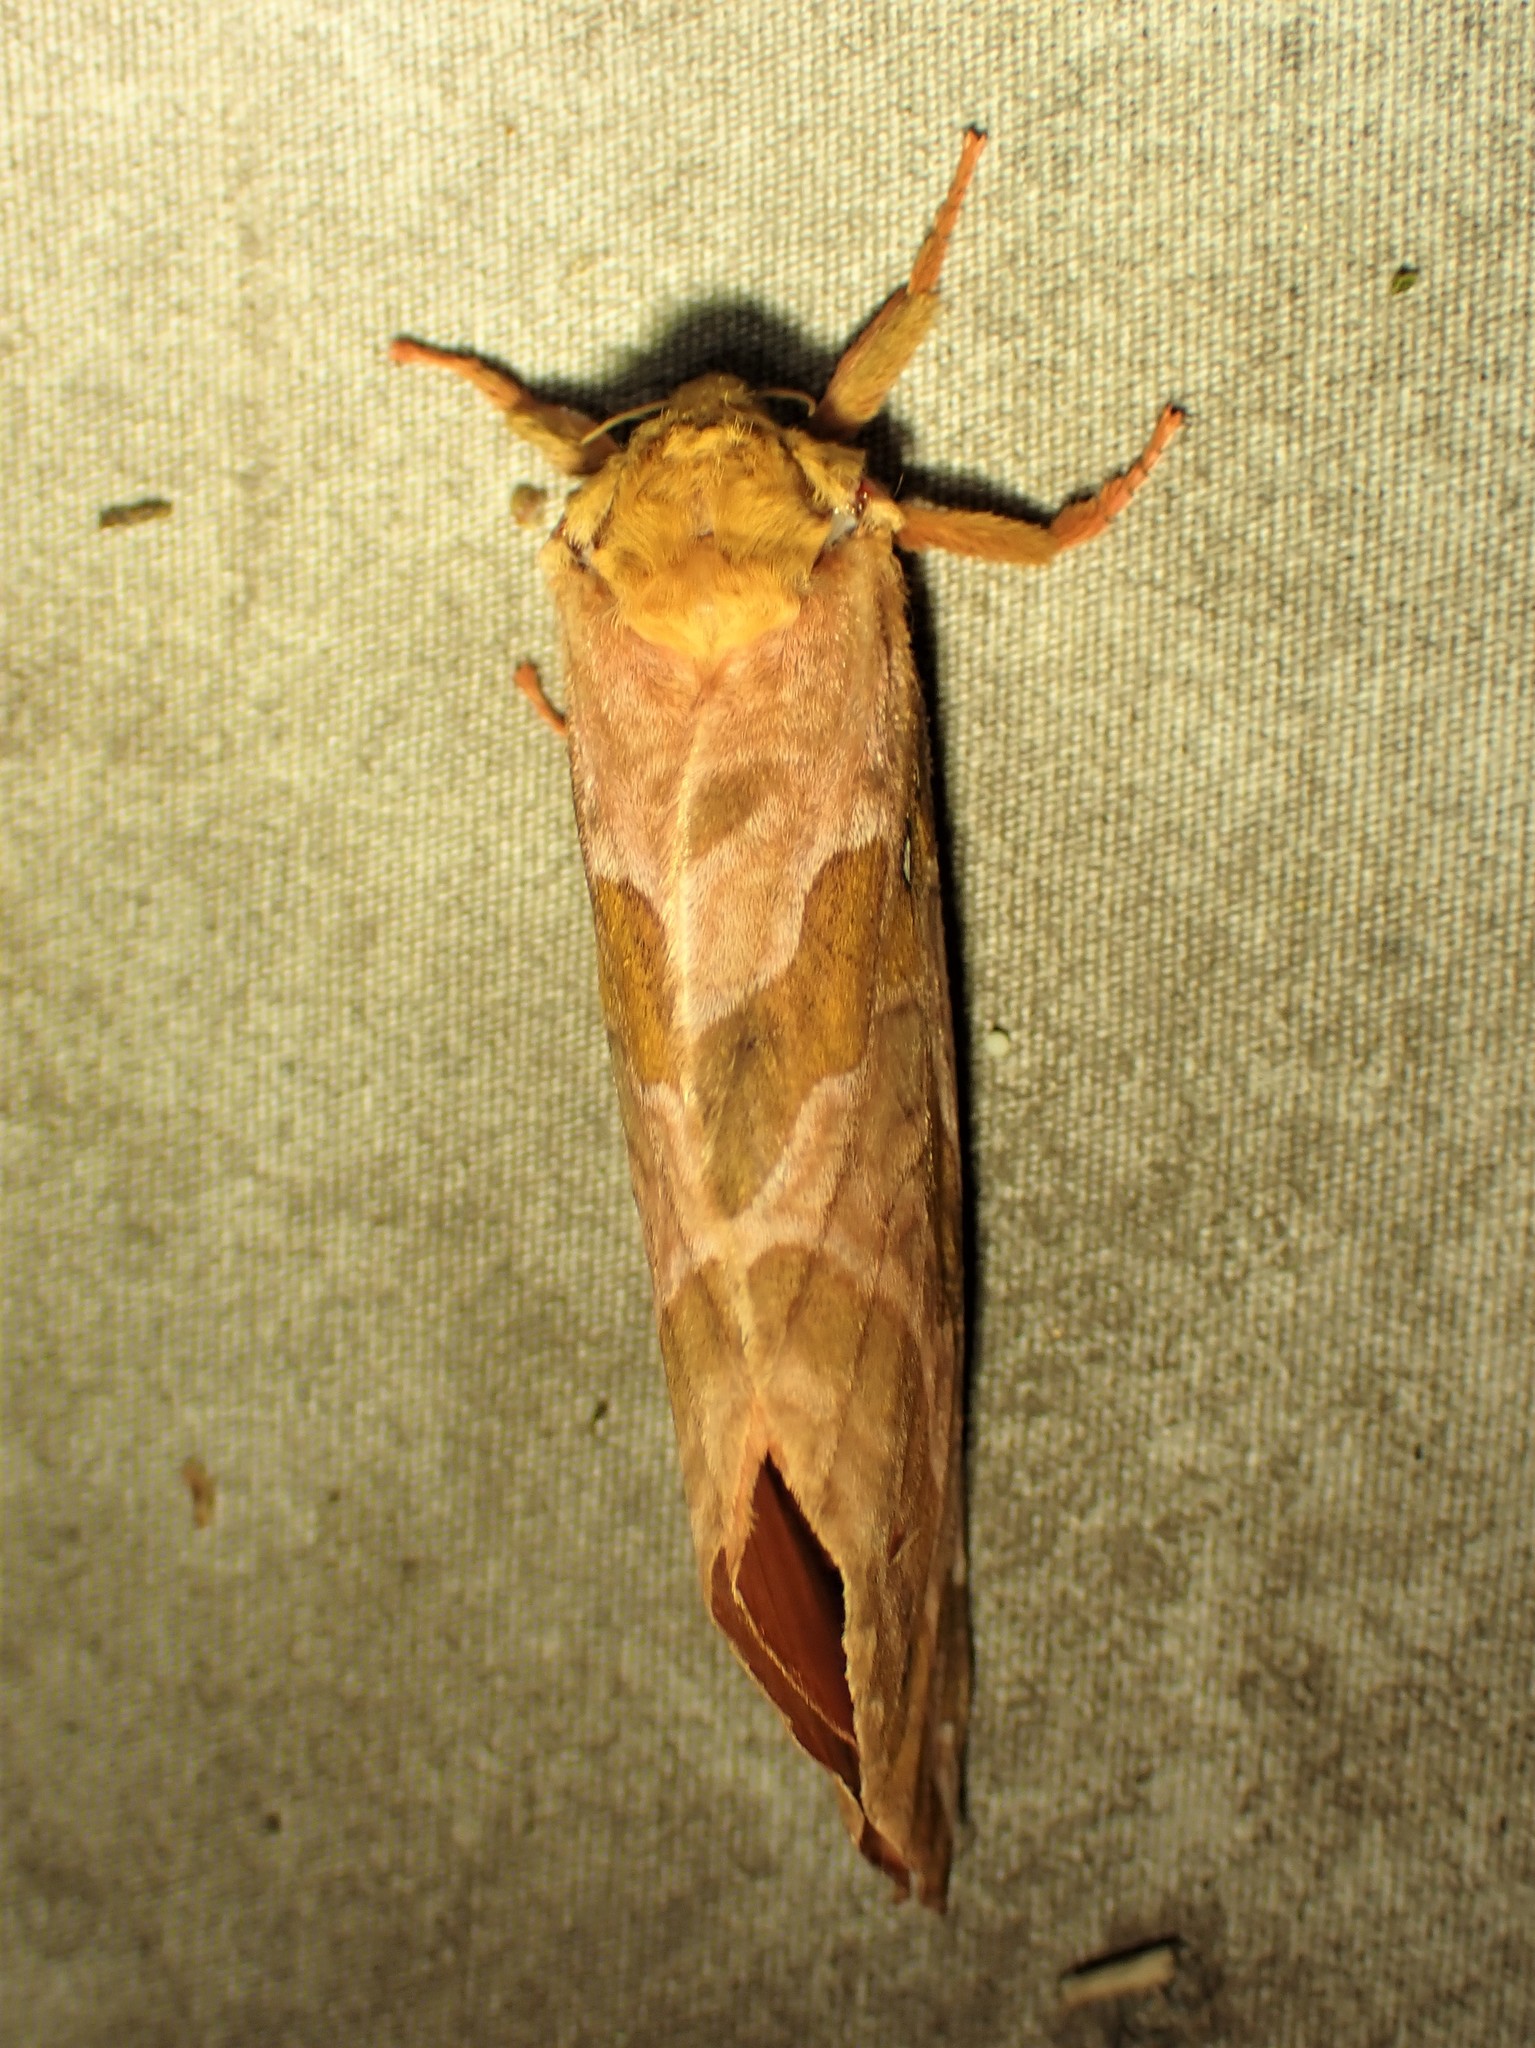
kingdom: Animalia
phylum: Arthropoda
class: Insecta
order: Lepidoptera
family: Hepialidae
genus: Sthenopis
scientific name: Sthenopis purpurascens
